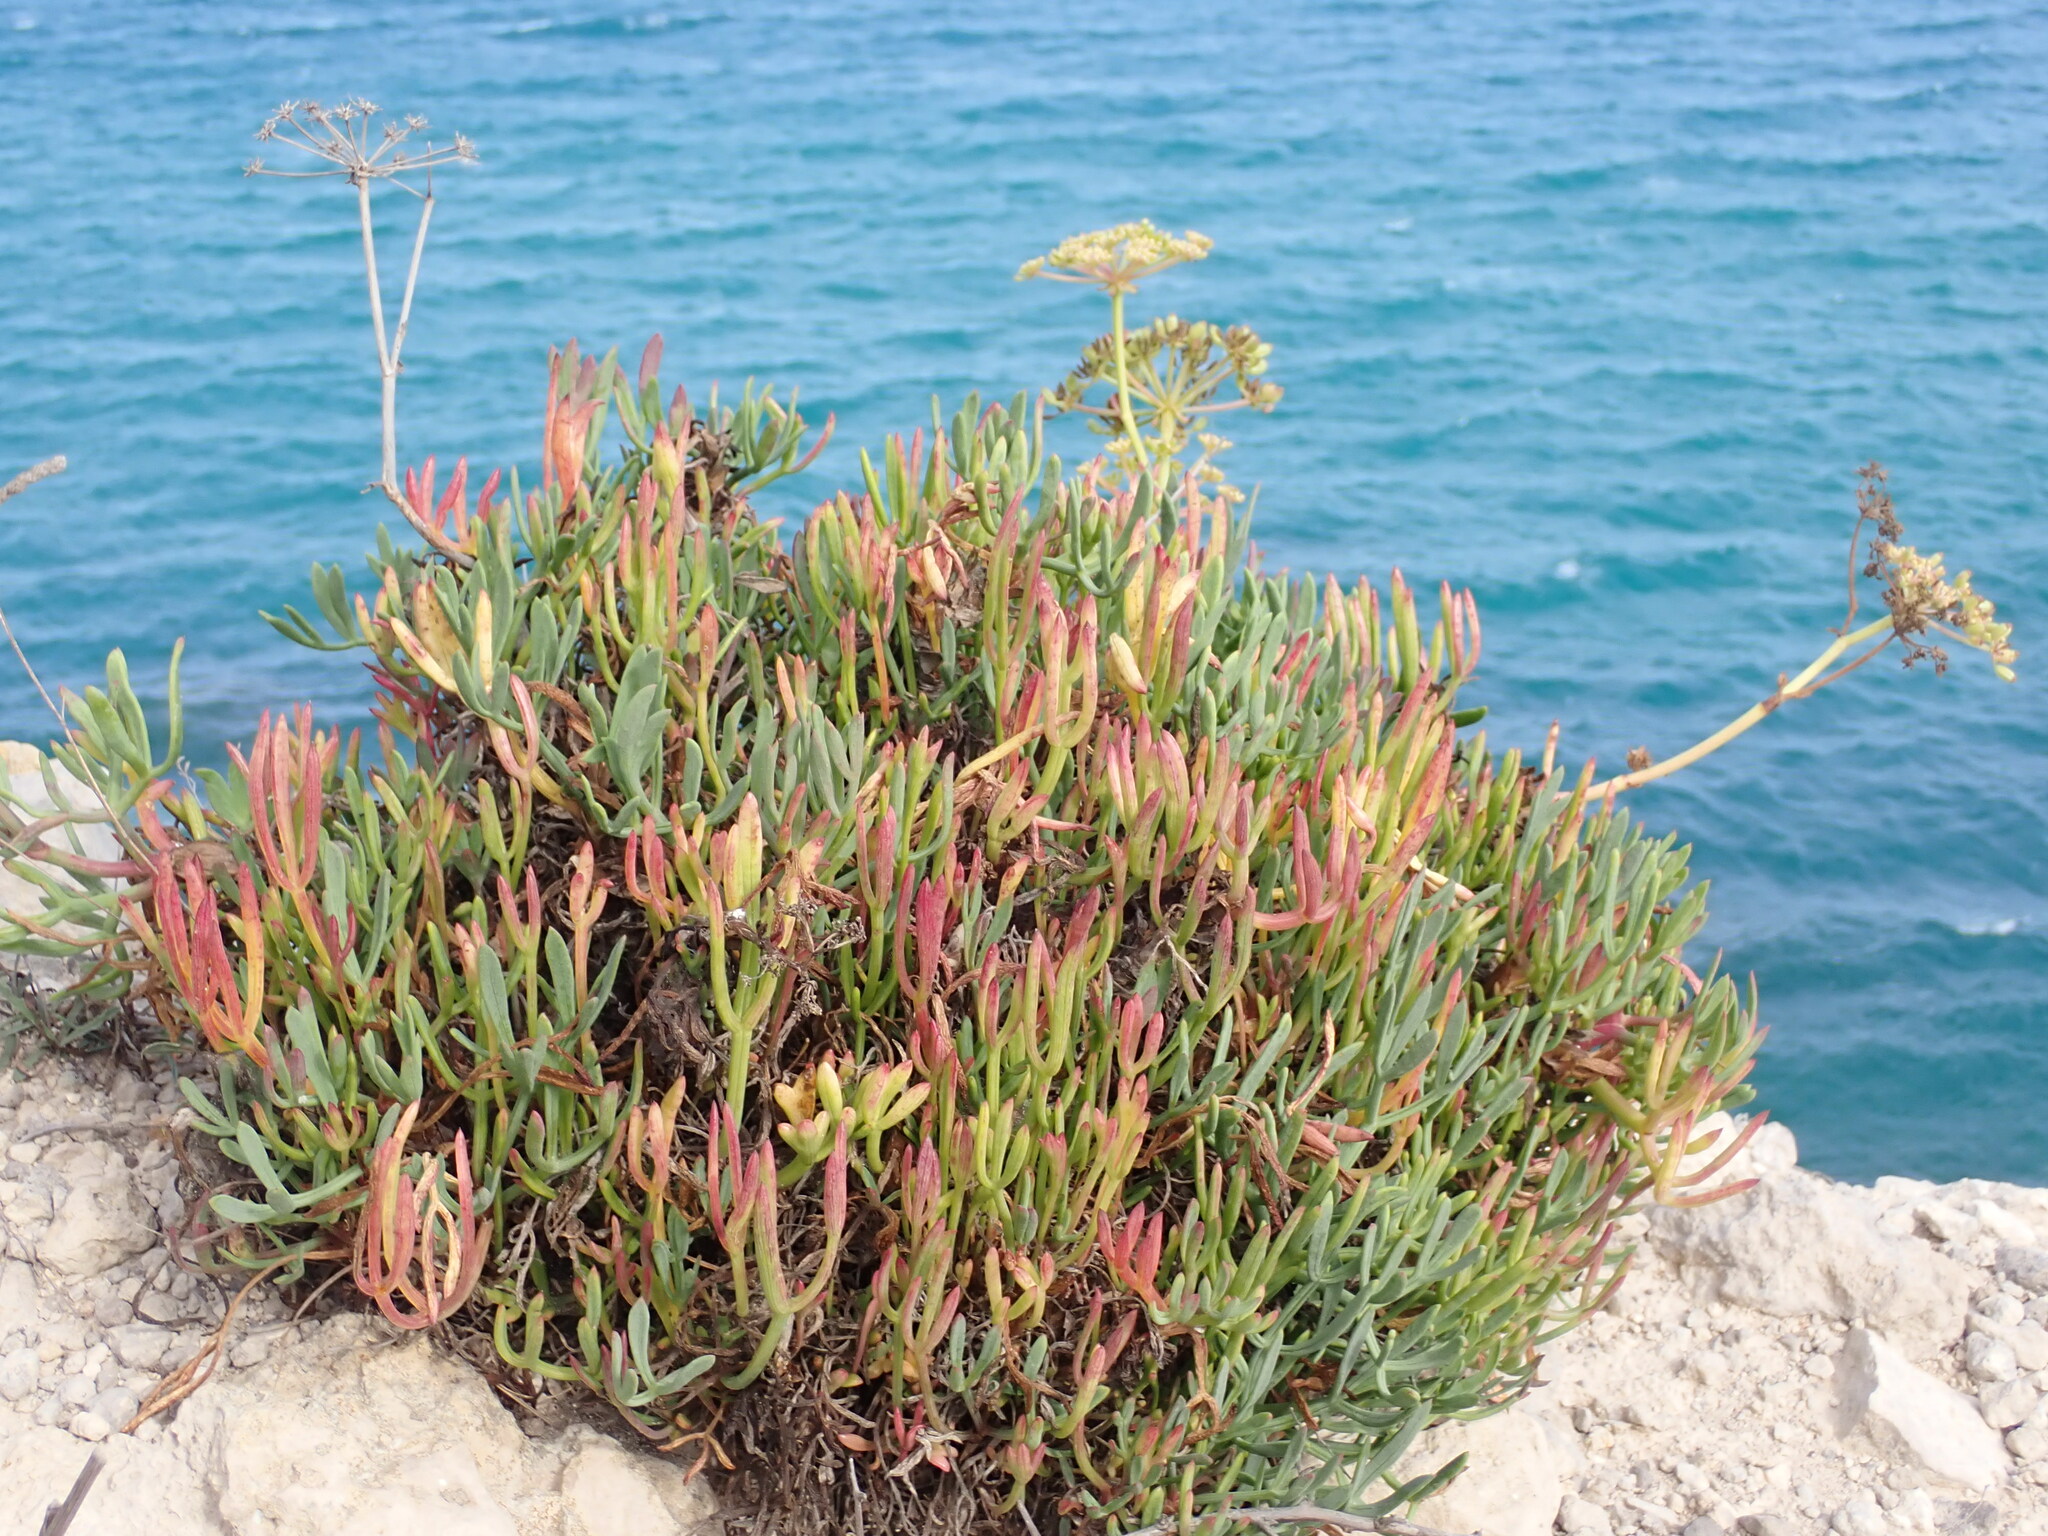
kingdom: Plantae
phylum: Tracheophyta
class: Magnoliopsida
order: Apiales
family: Apiaceae
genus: Crithmum
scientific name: Crithmum maritimum
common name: Rock samphire
